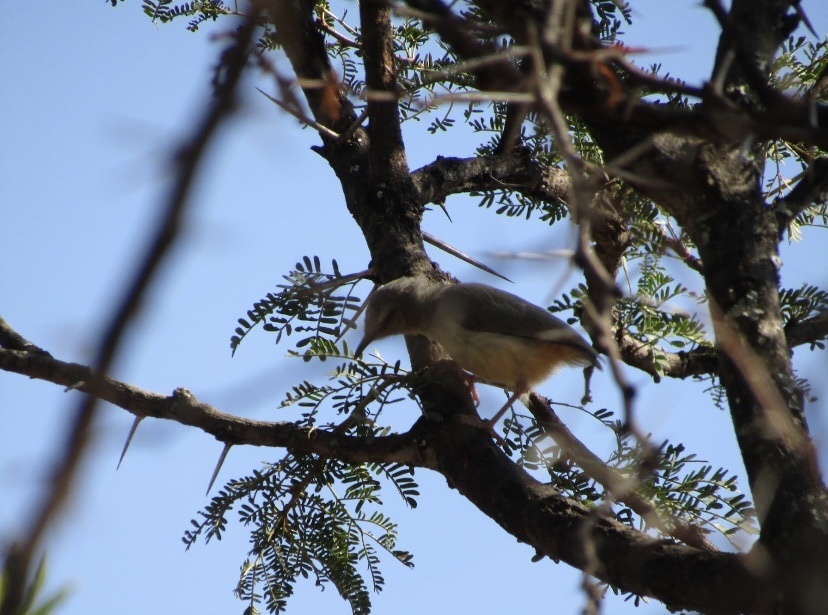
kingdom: Animalia
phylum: Chordata
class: Aves
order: Passeriformes
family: Macrosphenidae
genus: Sylvietta
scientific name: Sylvietta rufescens
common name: Long-billed crombec
